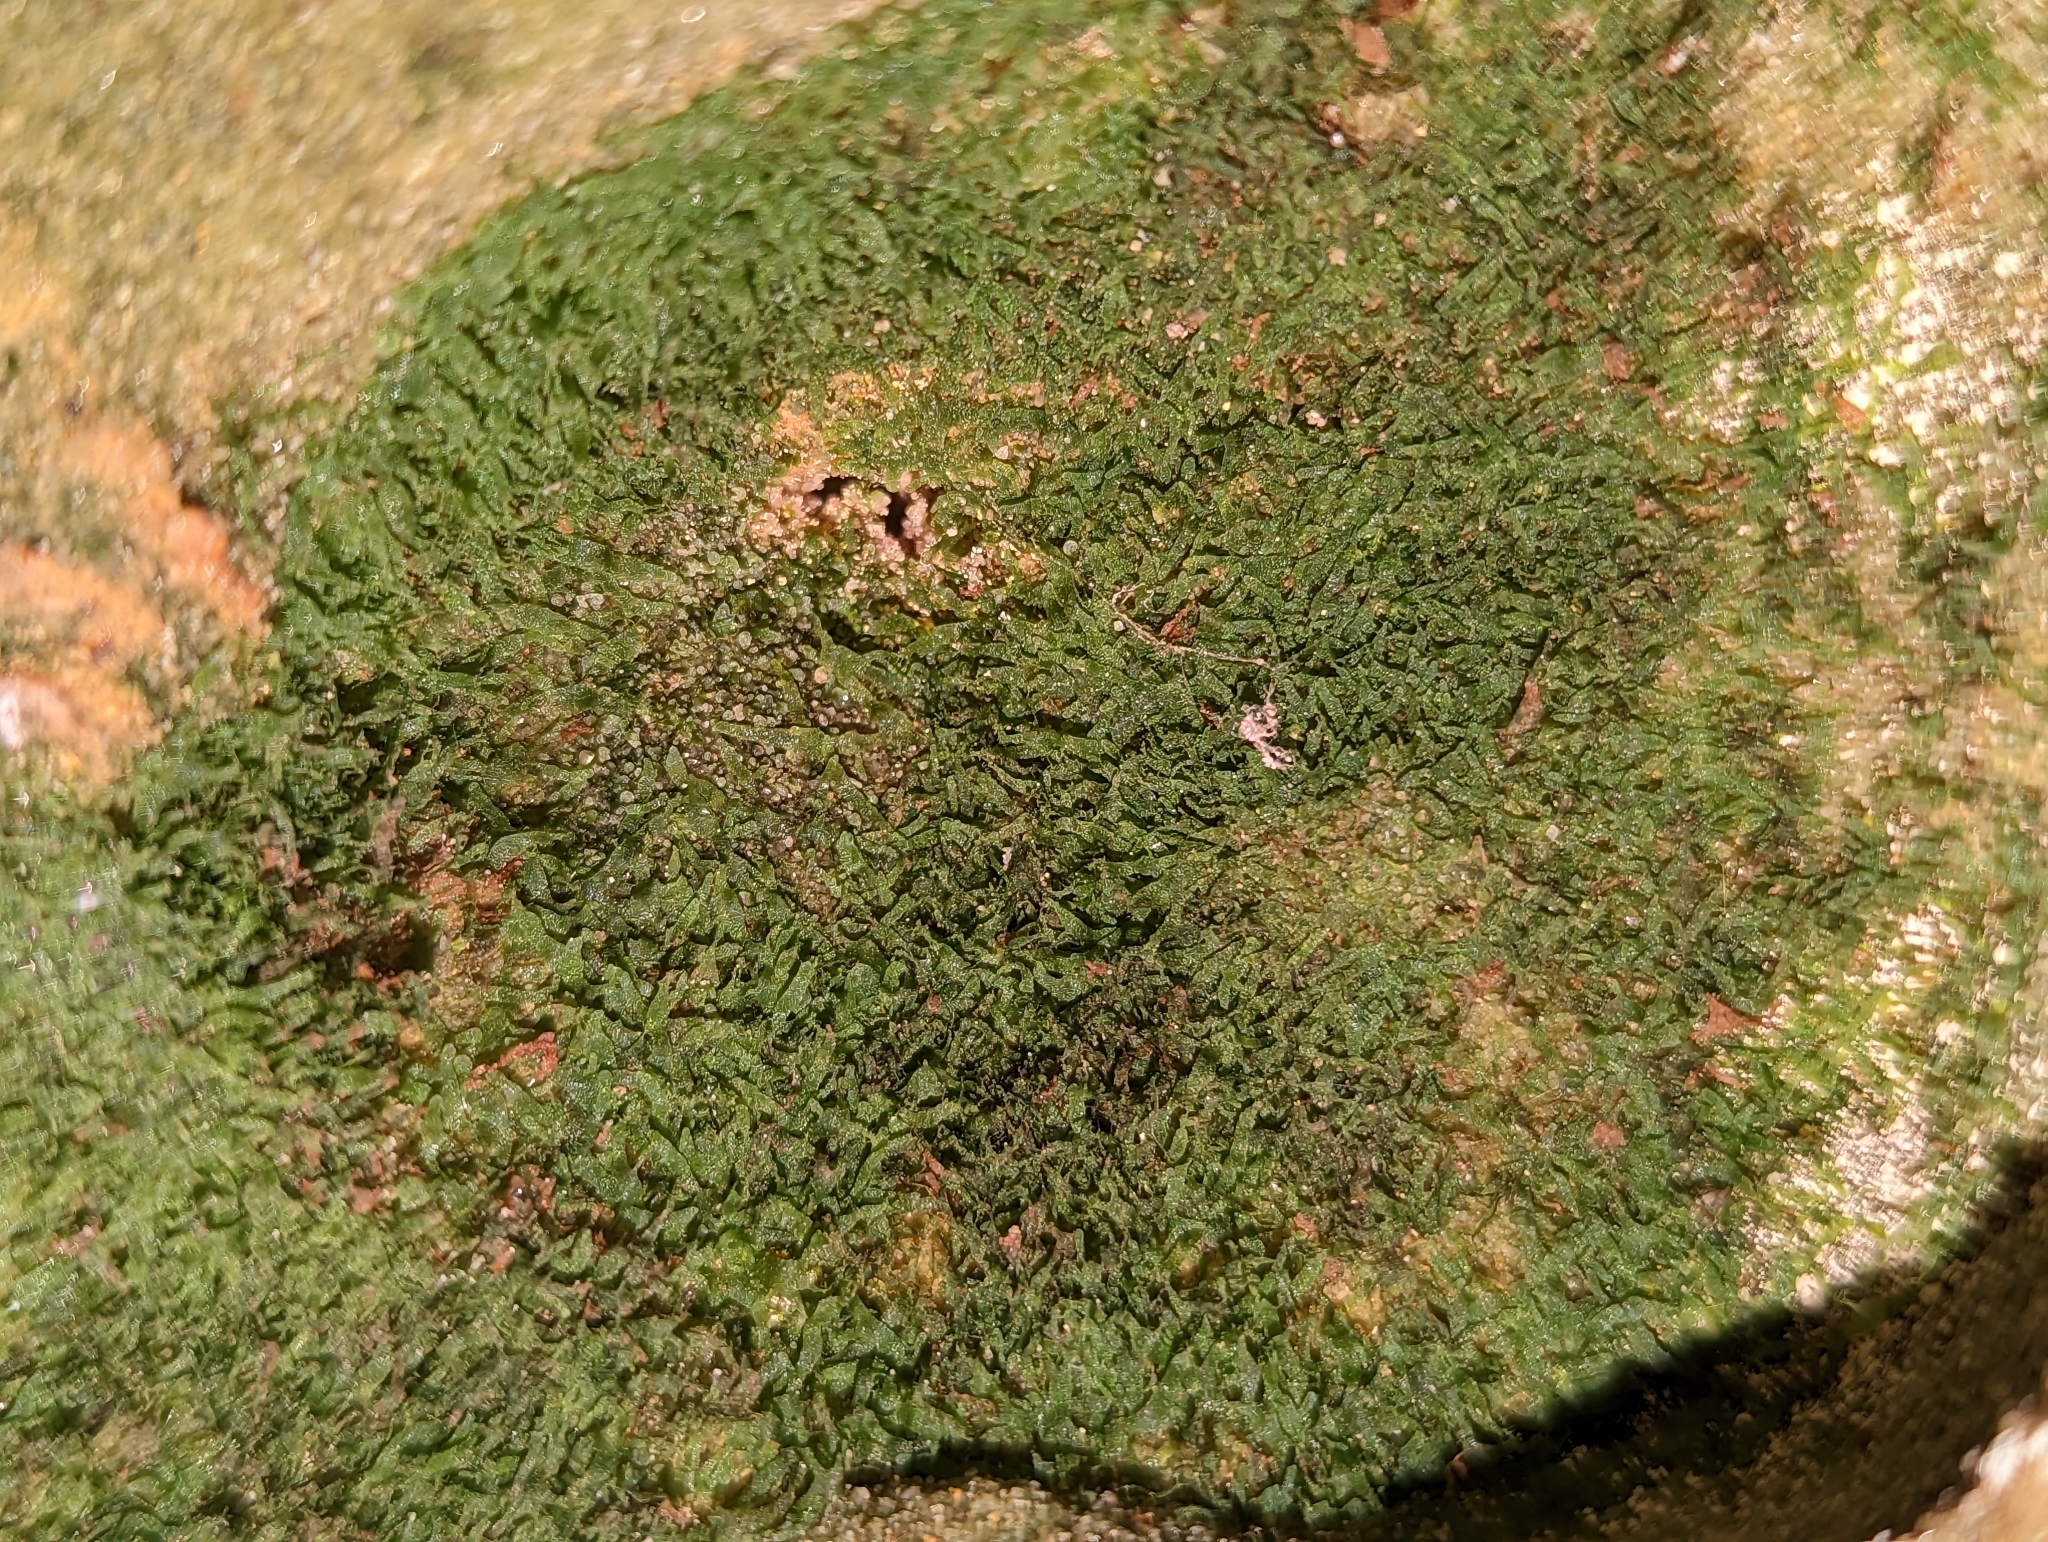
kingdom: Plantae
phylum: Tracheophyta
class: Polypodiopsida
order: Polypodiales
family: Pteridaceae
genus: Vittaria
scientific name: Vittaria appalachiana
